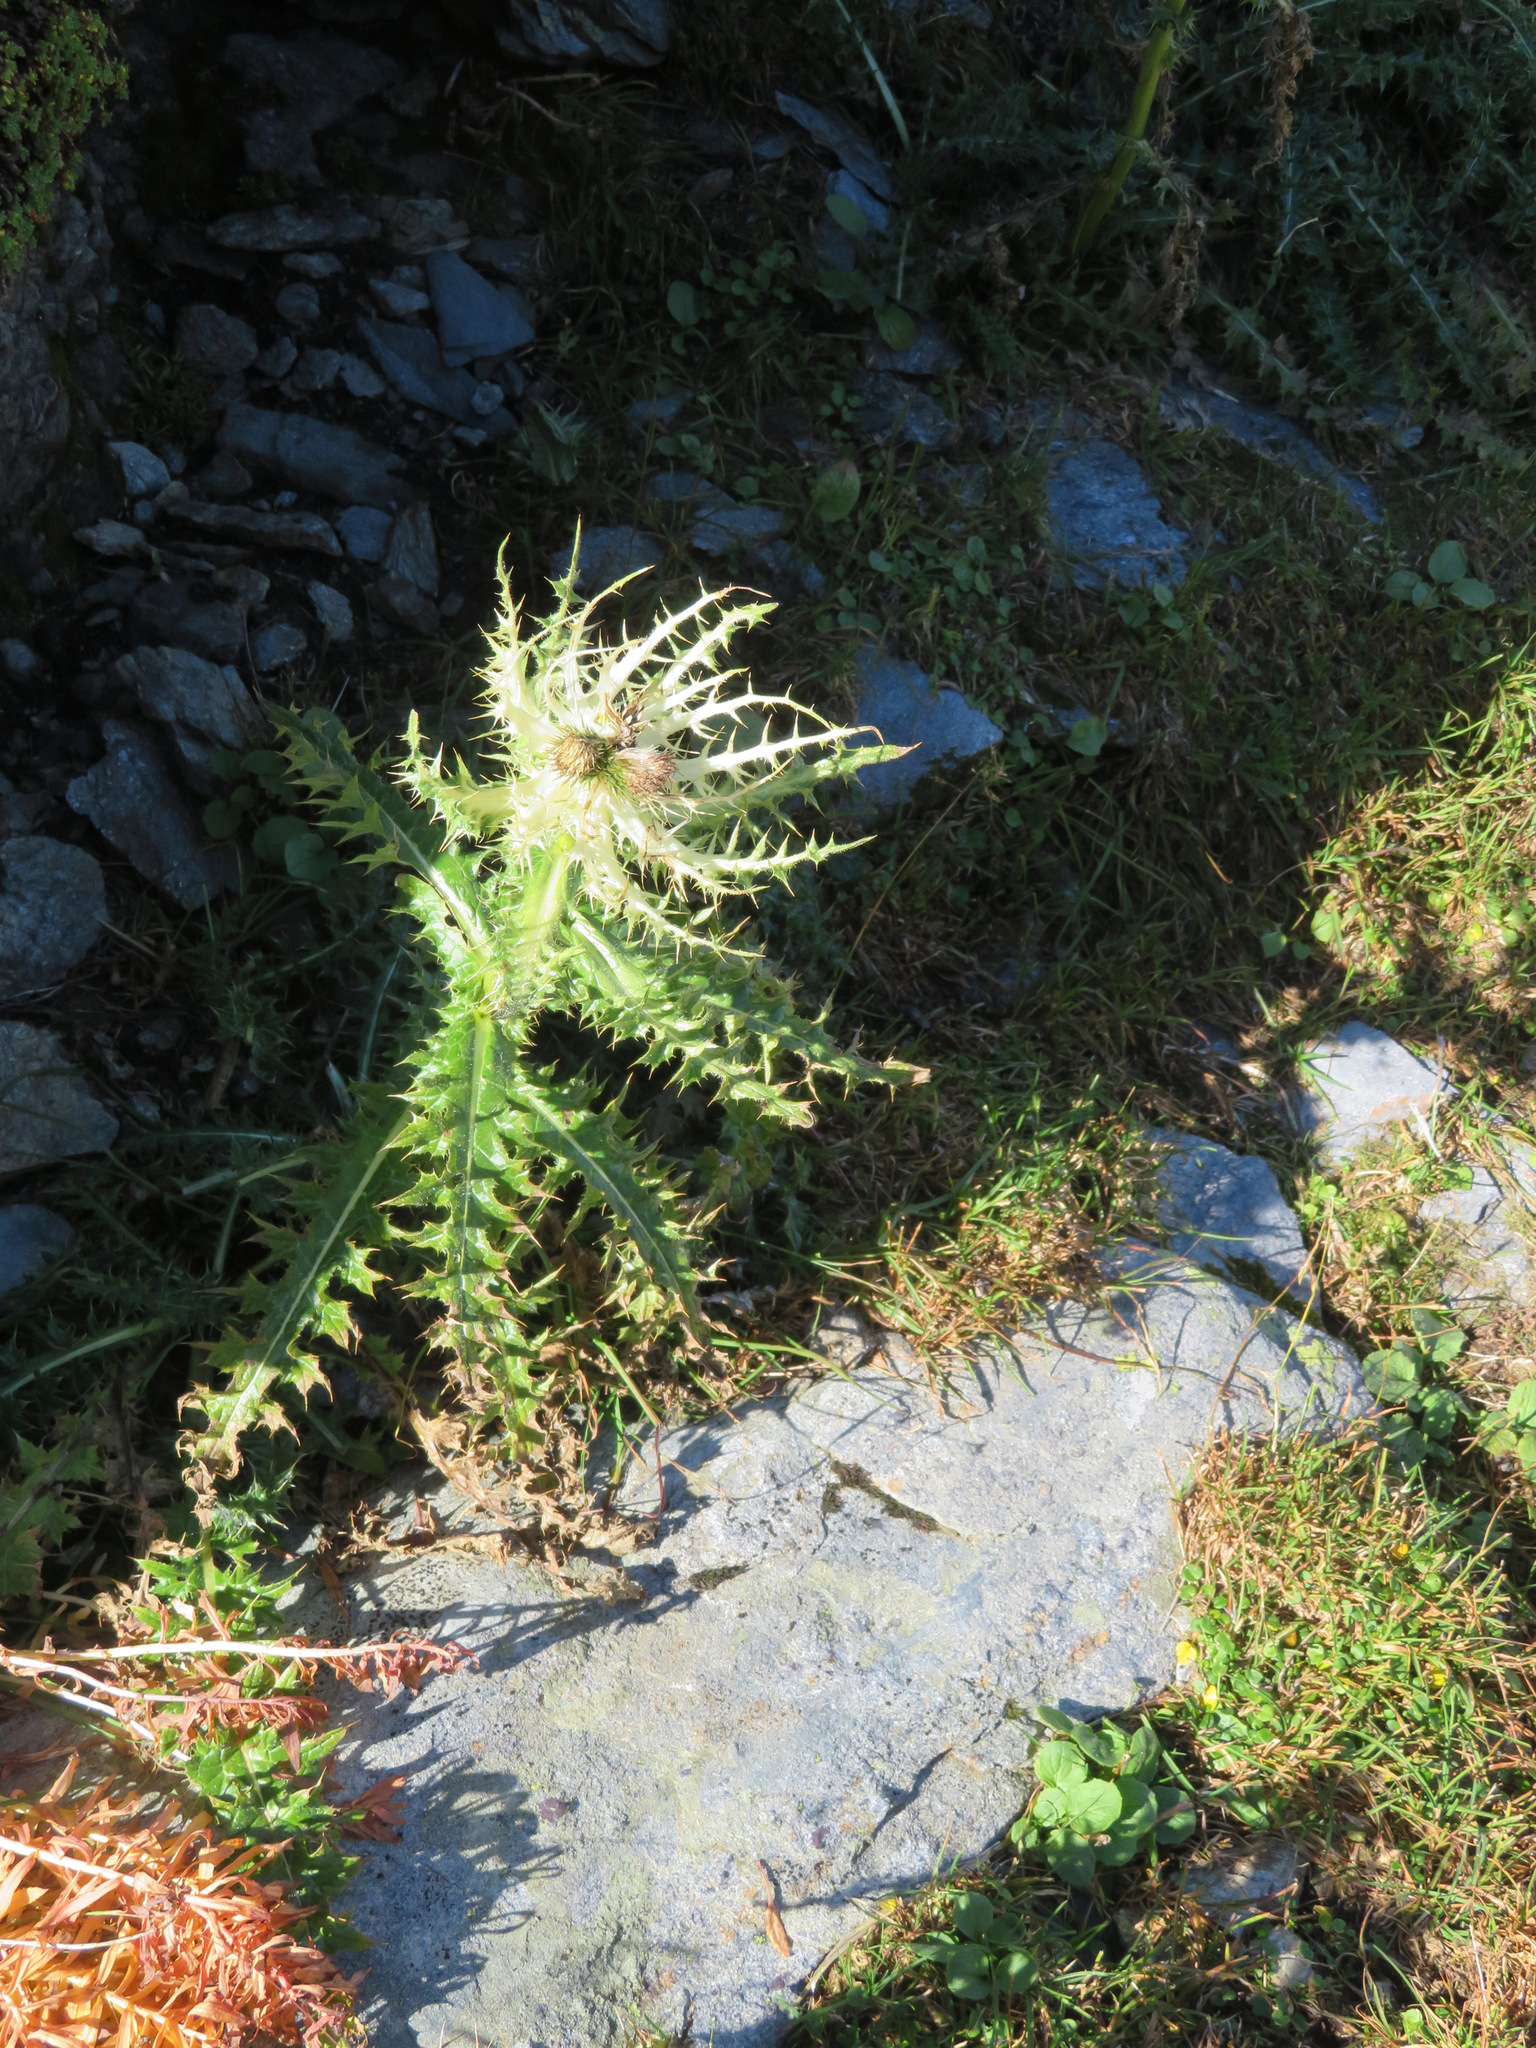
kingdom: Plantae
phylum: Tracheophyta
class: Magnoliopsida
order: Asterales
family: Asteraceae
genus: Cirsium
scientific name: Cirsium spinosissimum
